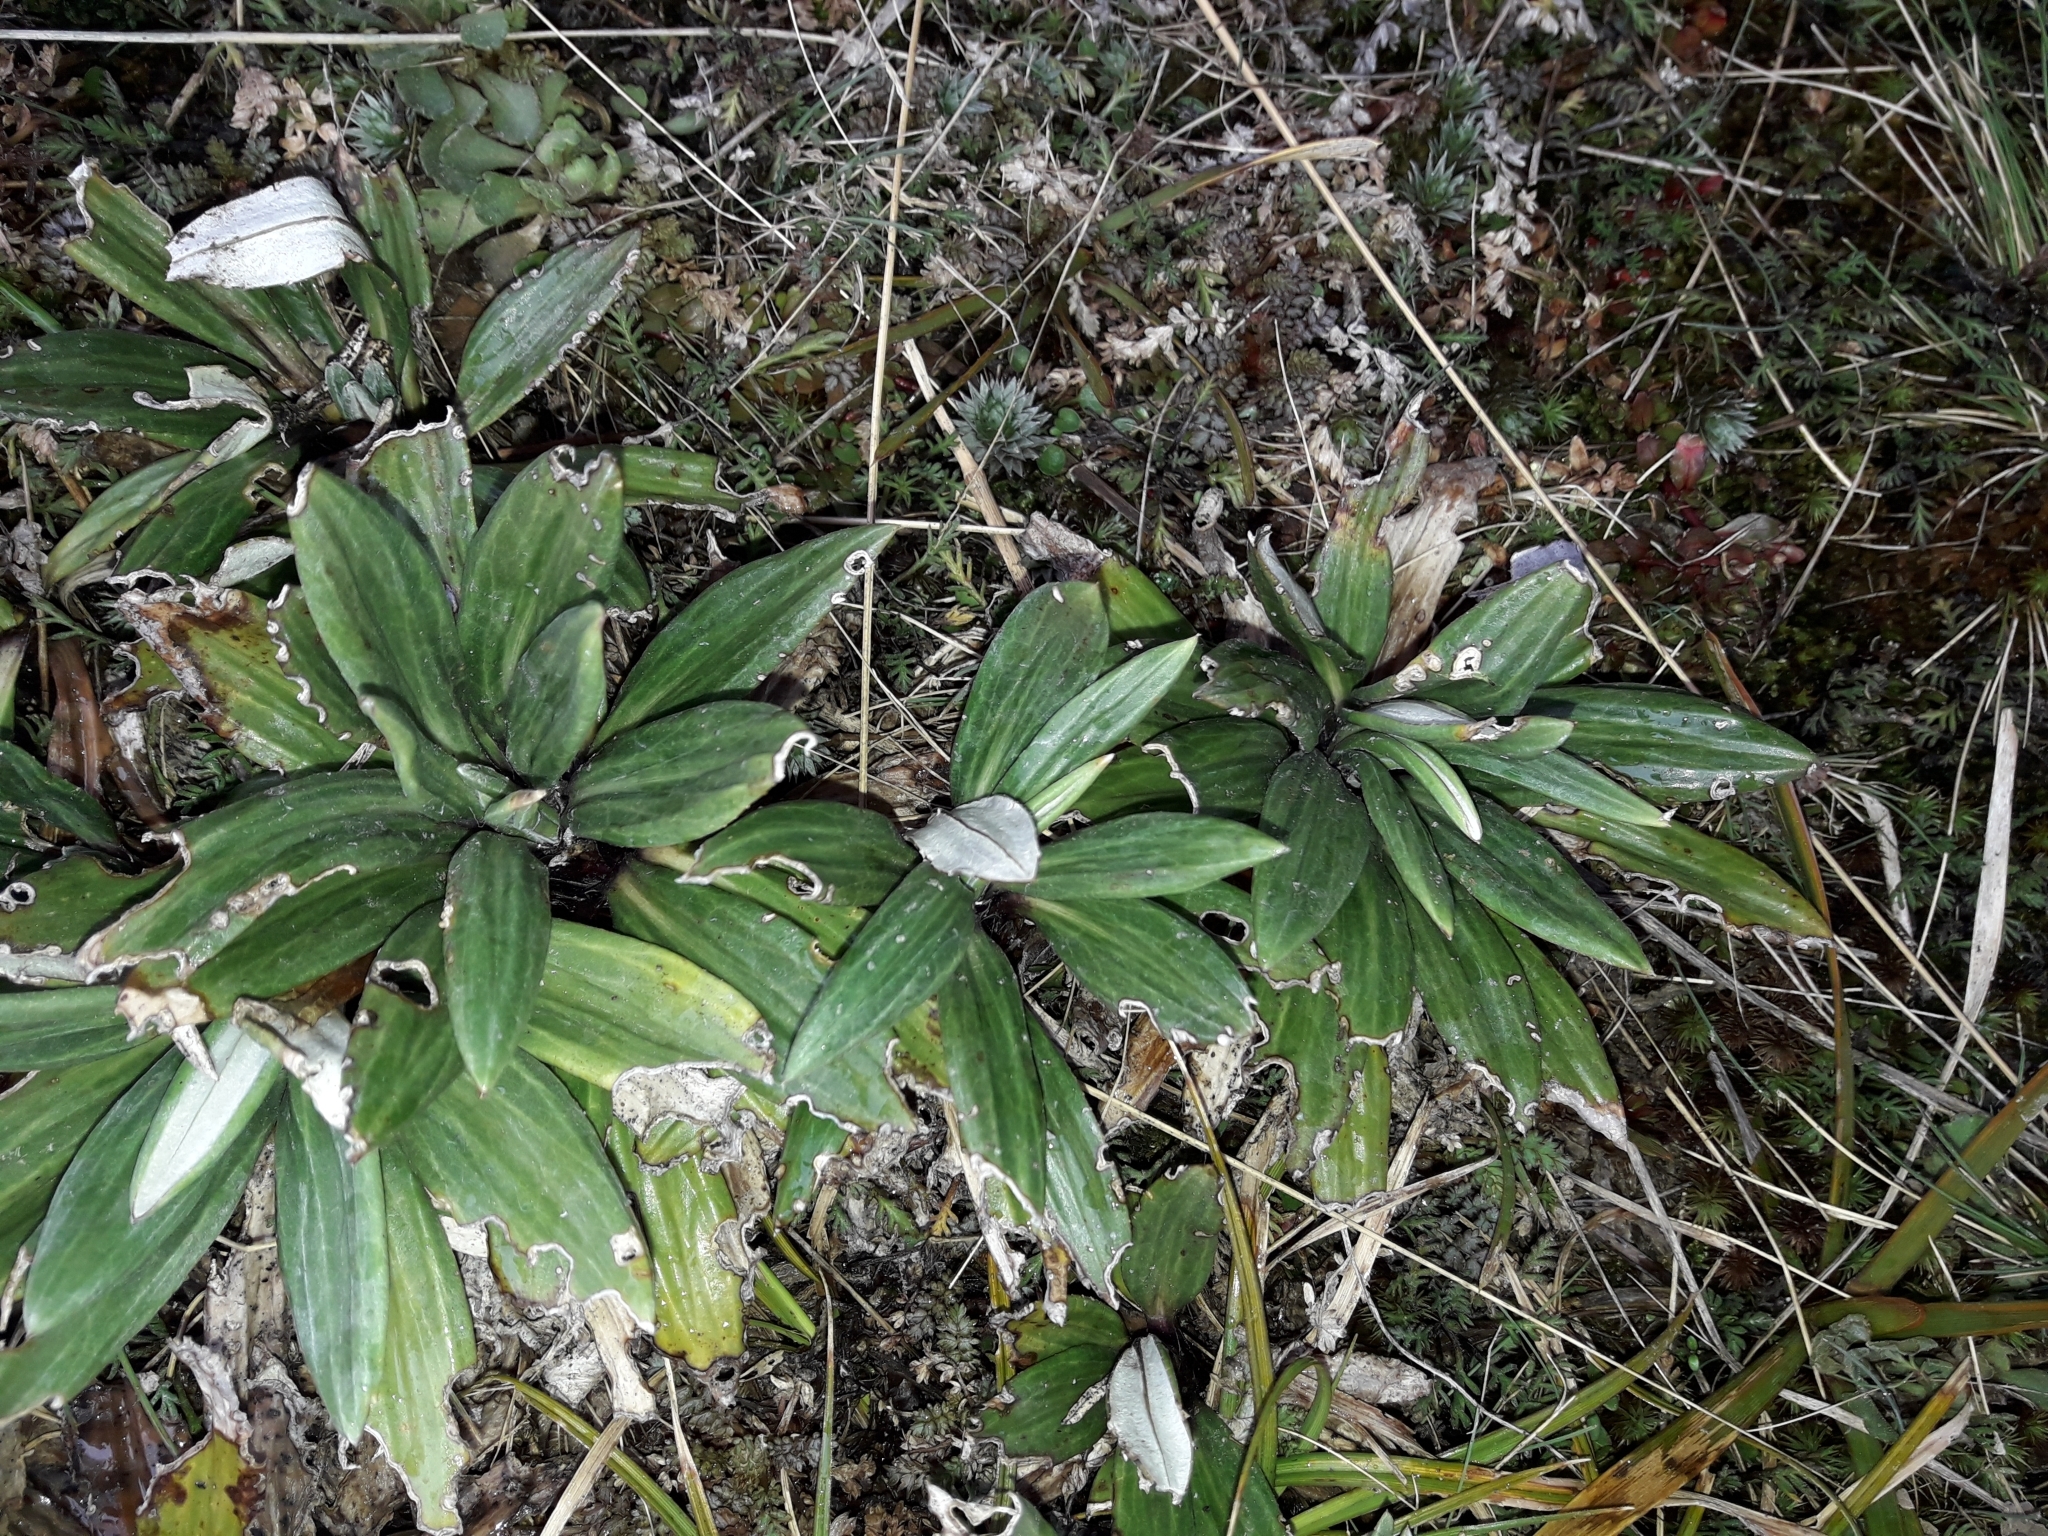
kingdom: Plantae
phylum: Tracheophyta
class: Magnoliopsida
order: Asterales
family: Asteraceae
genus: Celmisia
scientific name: Celmisia haastii
